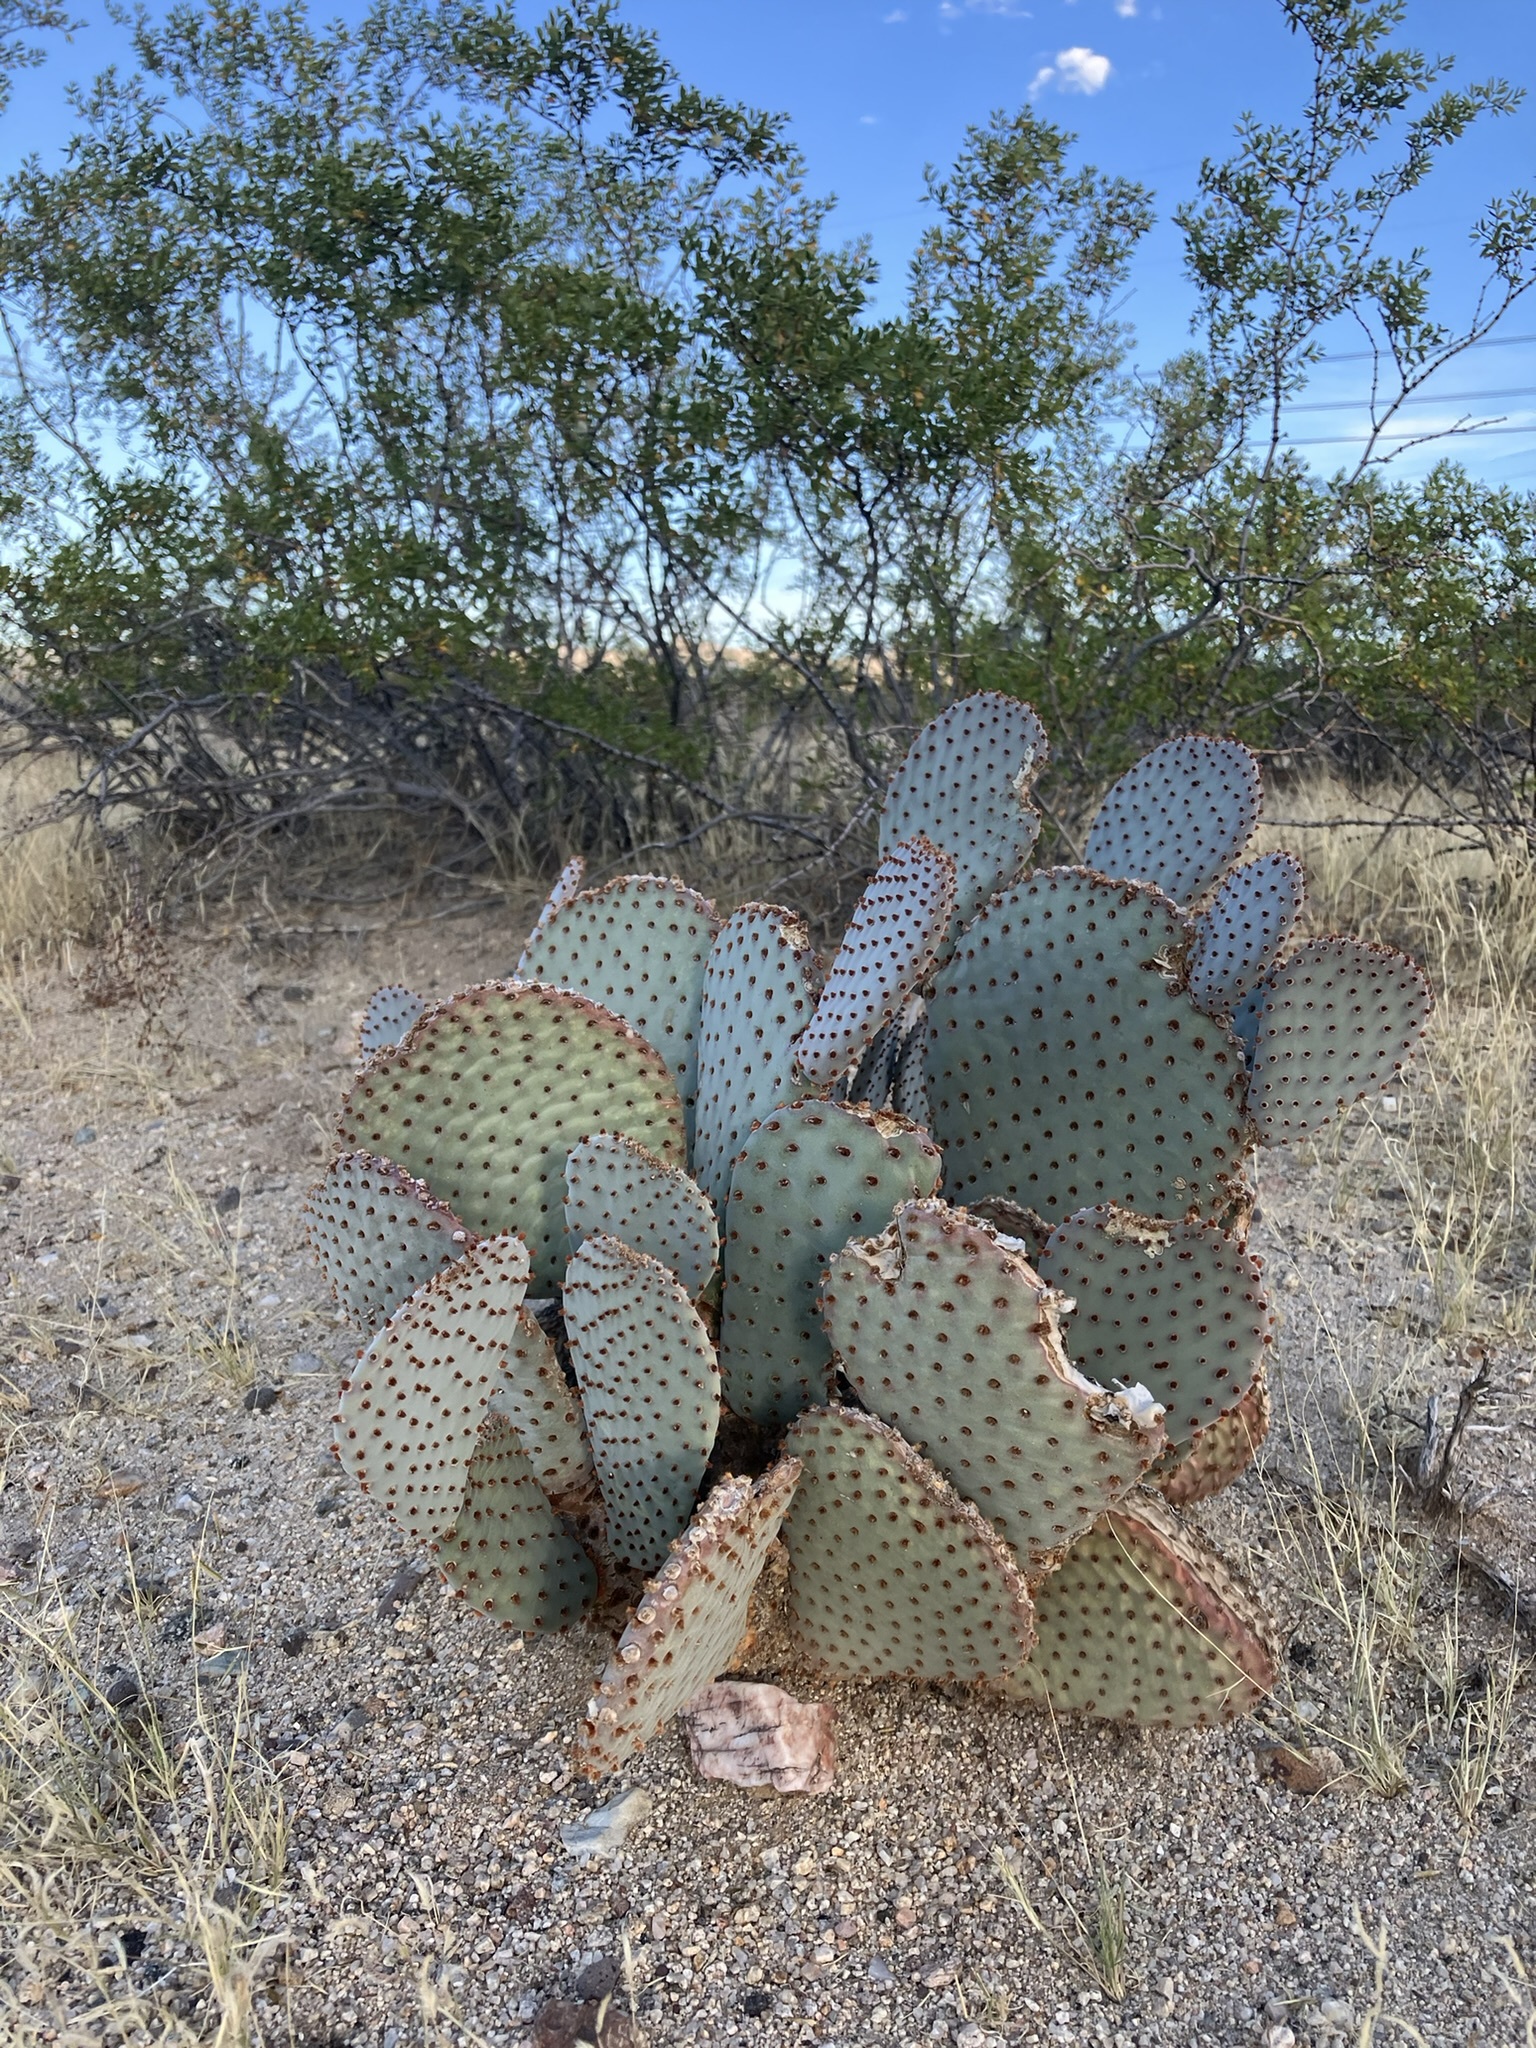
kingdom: Plantae
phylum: Tracheophyta
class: Magnoliopsida
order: Caryophyllales
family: Cactaceae
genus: Opuntia
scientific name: Opuntia basilaris
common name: Beavertail prickly-pear
